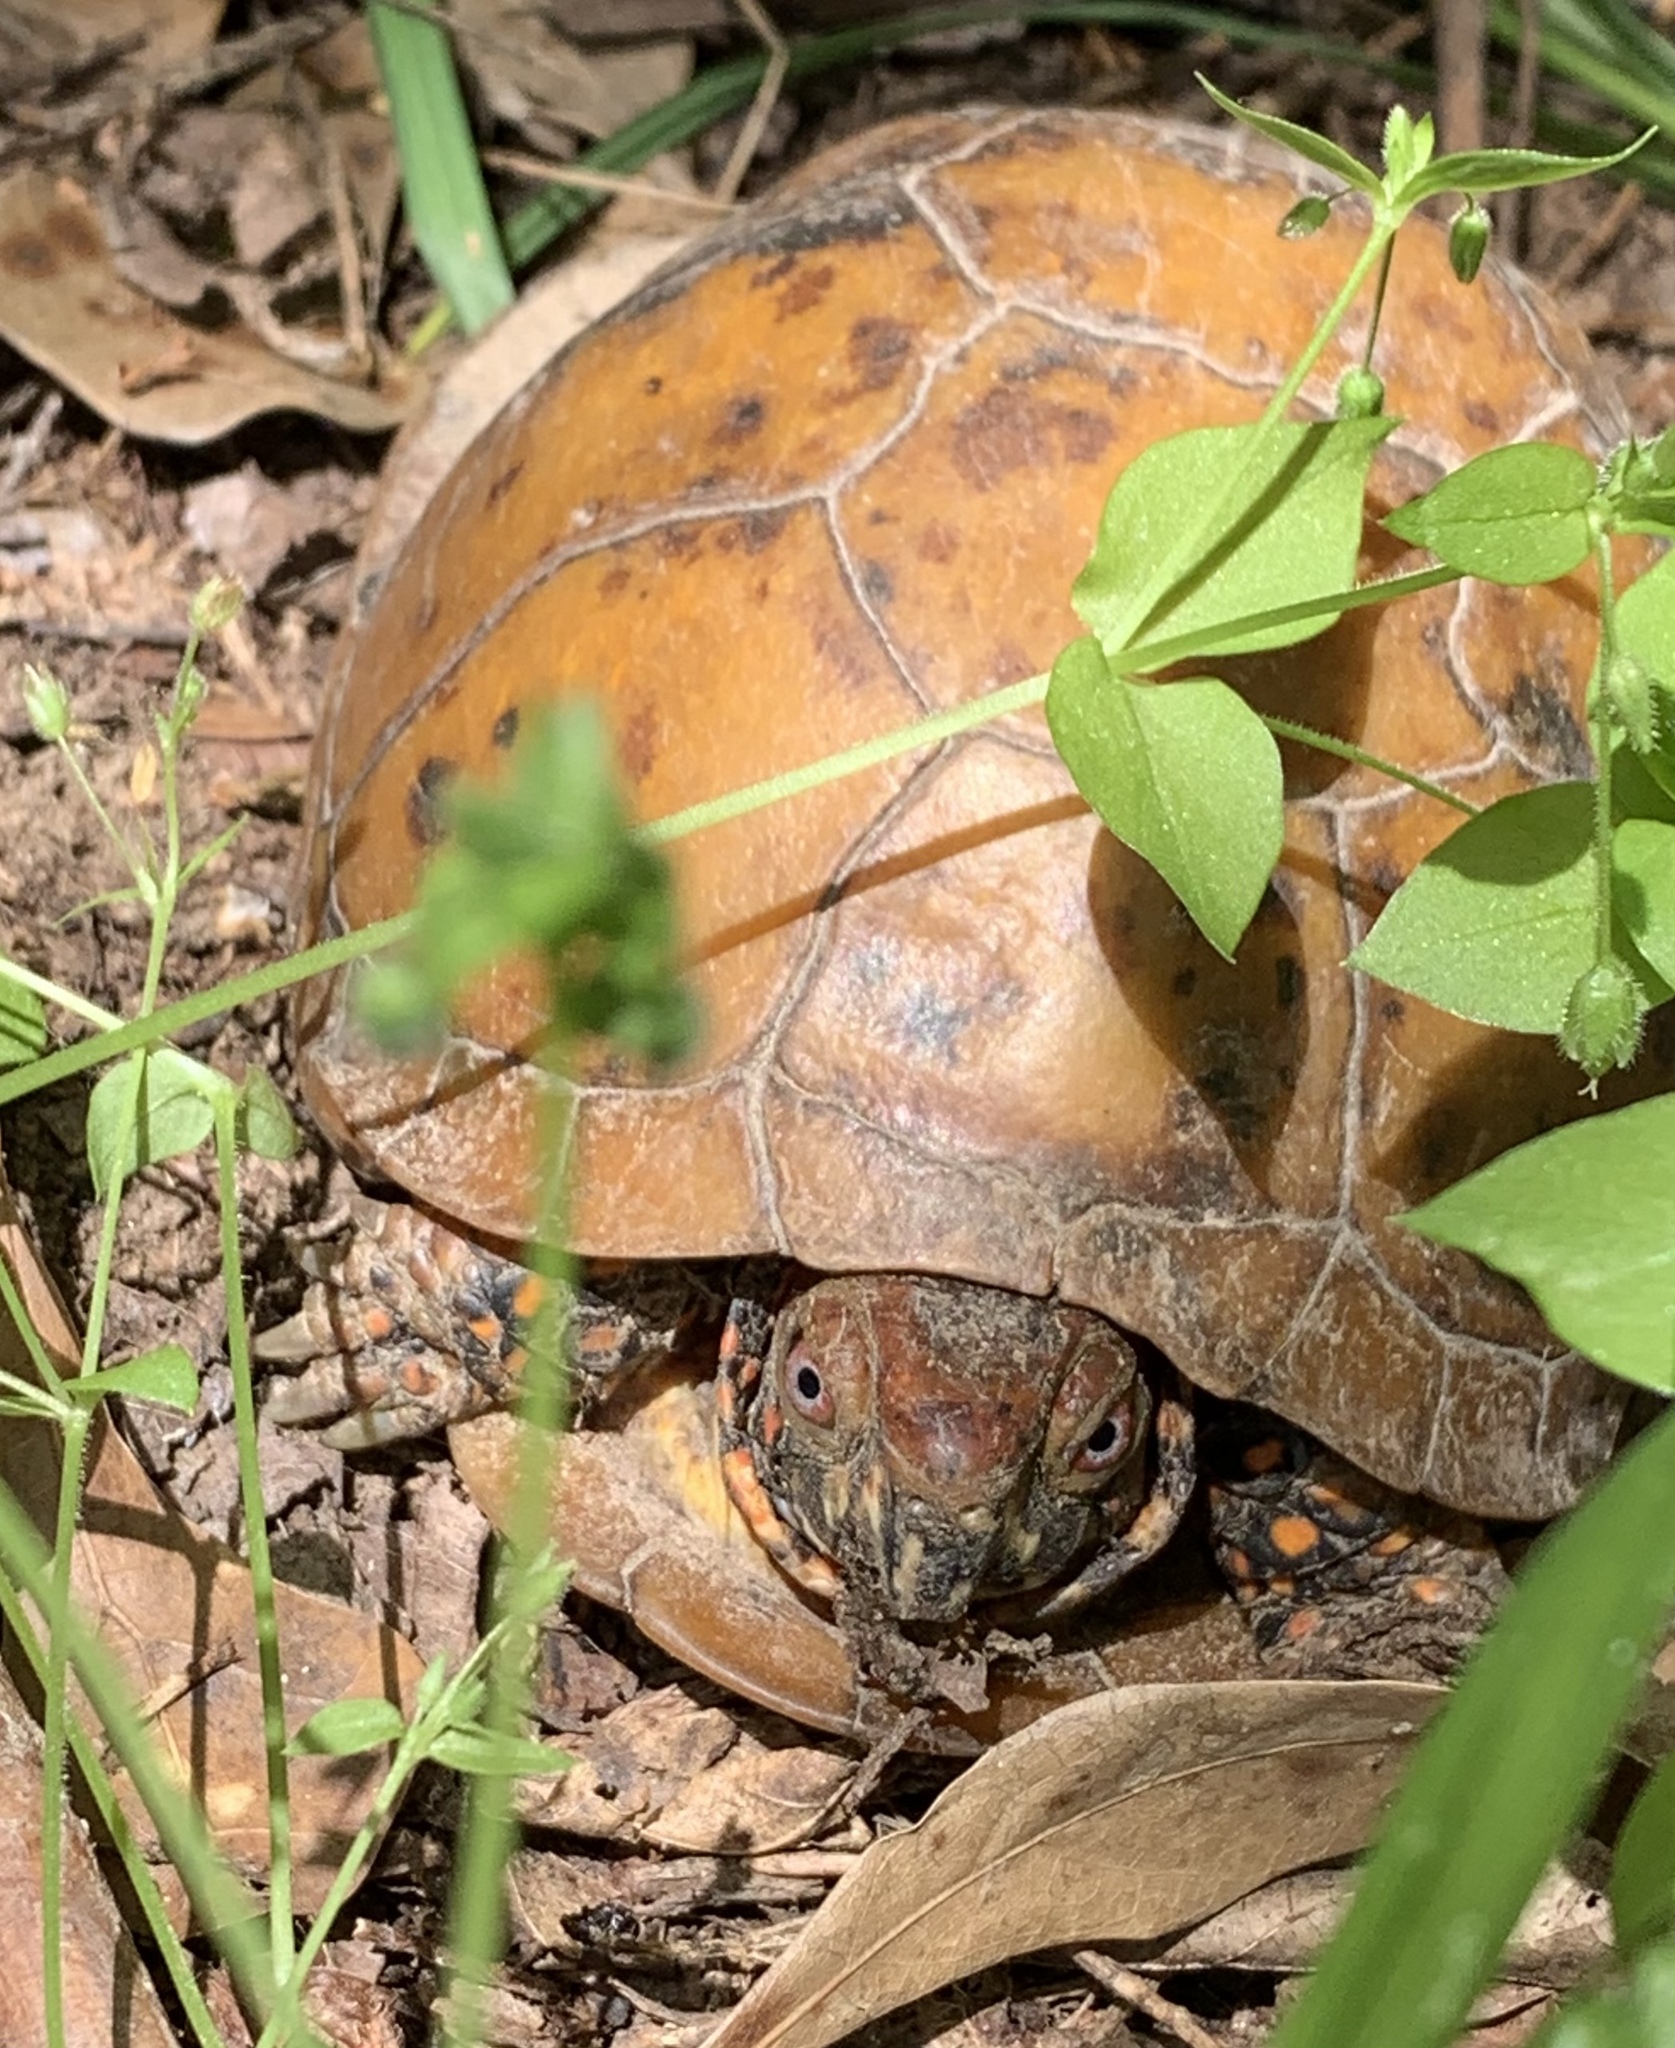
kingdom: Animalia
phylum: Chordata
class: Testudines
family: Emydidae
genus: Terrapene
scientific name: Terrapene carolina
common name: Common box turtle
